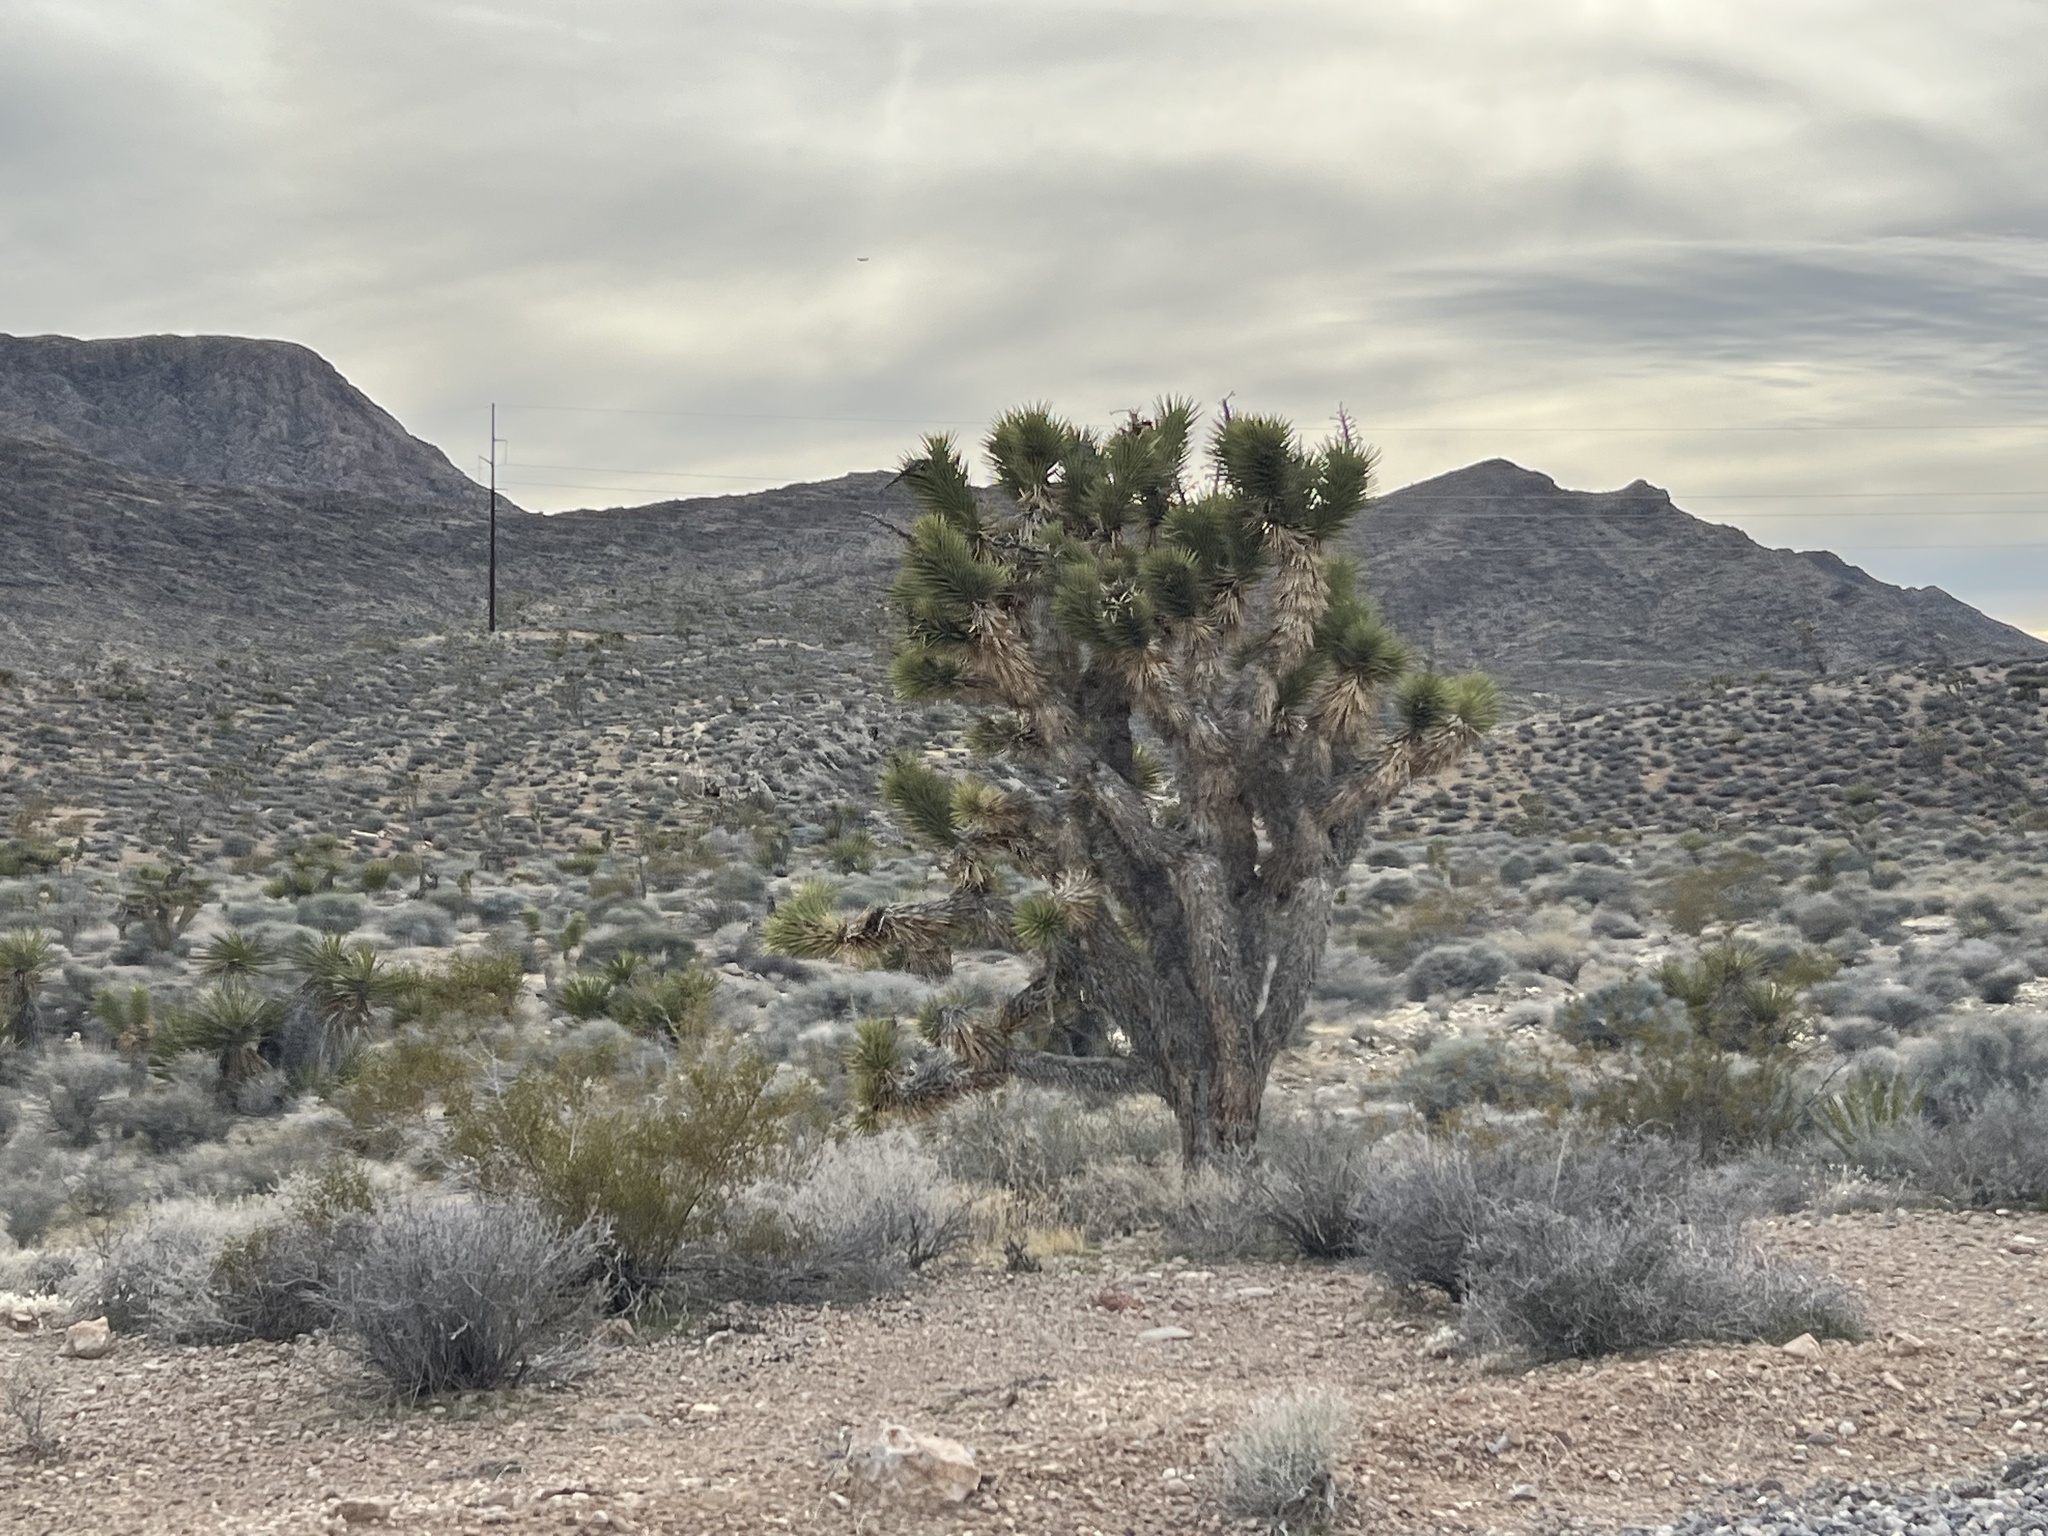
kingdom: Plantae
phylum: Tracheophyta
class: Liliopsida
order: Asparagales
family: Asparagaceae
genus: Yucca
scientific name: Yucca brevifolia
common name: Joshua tree
